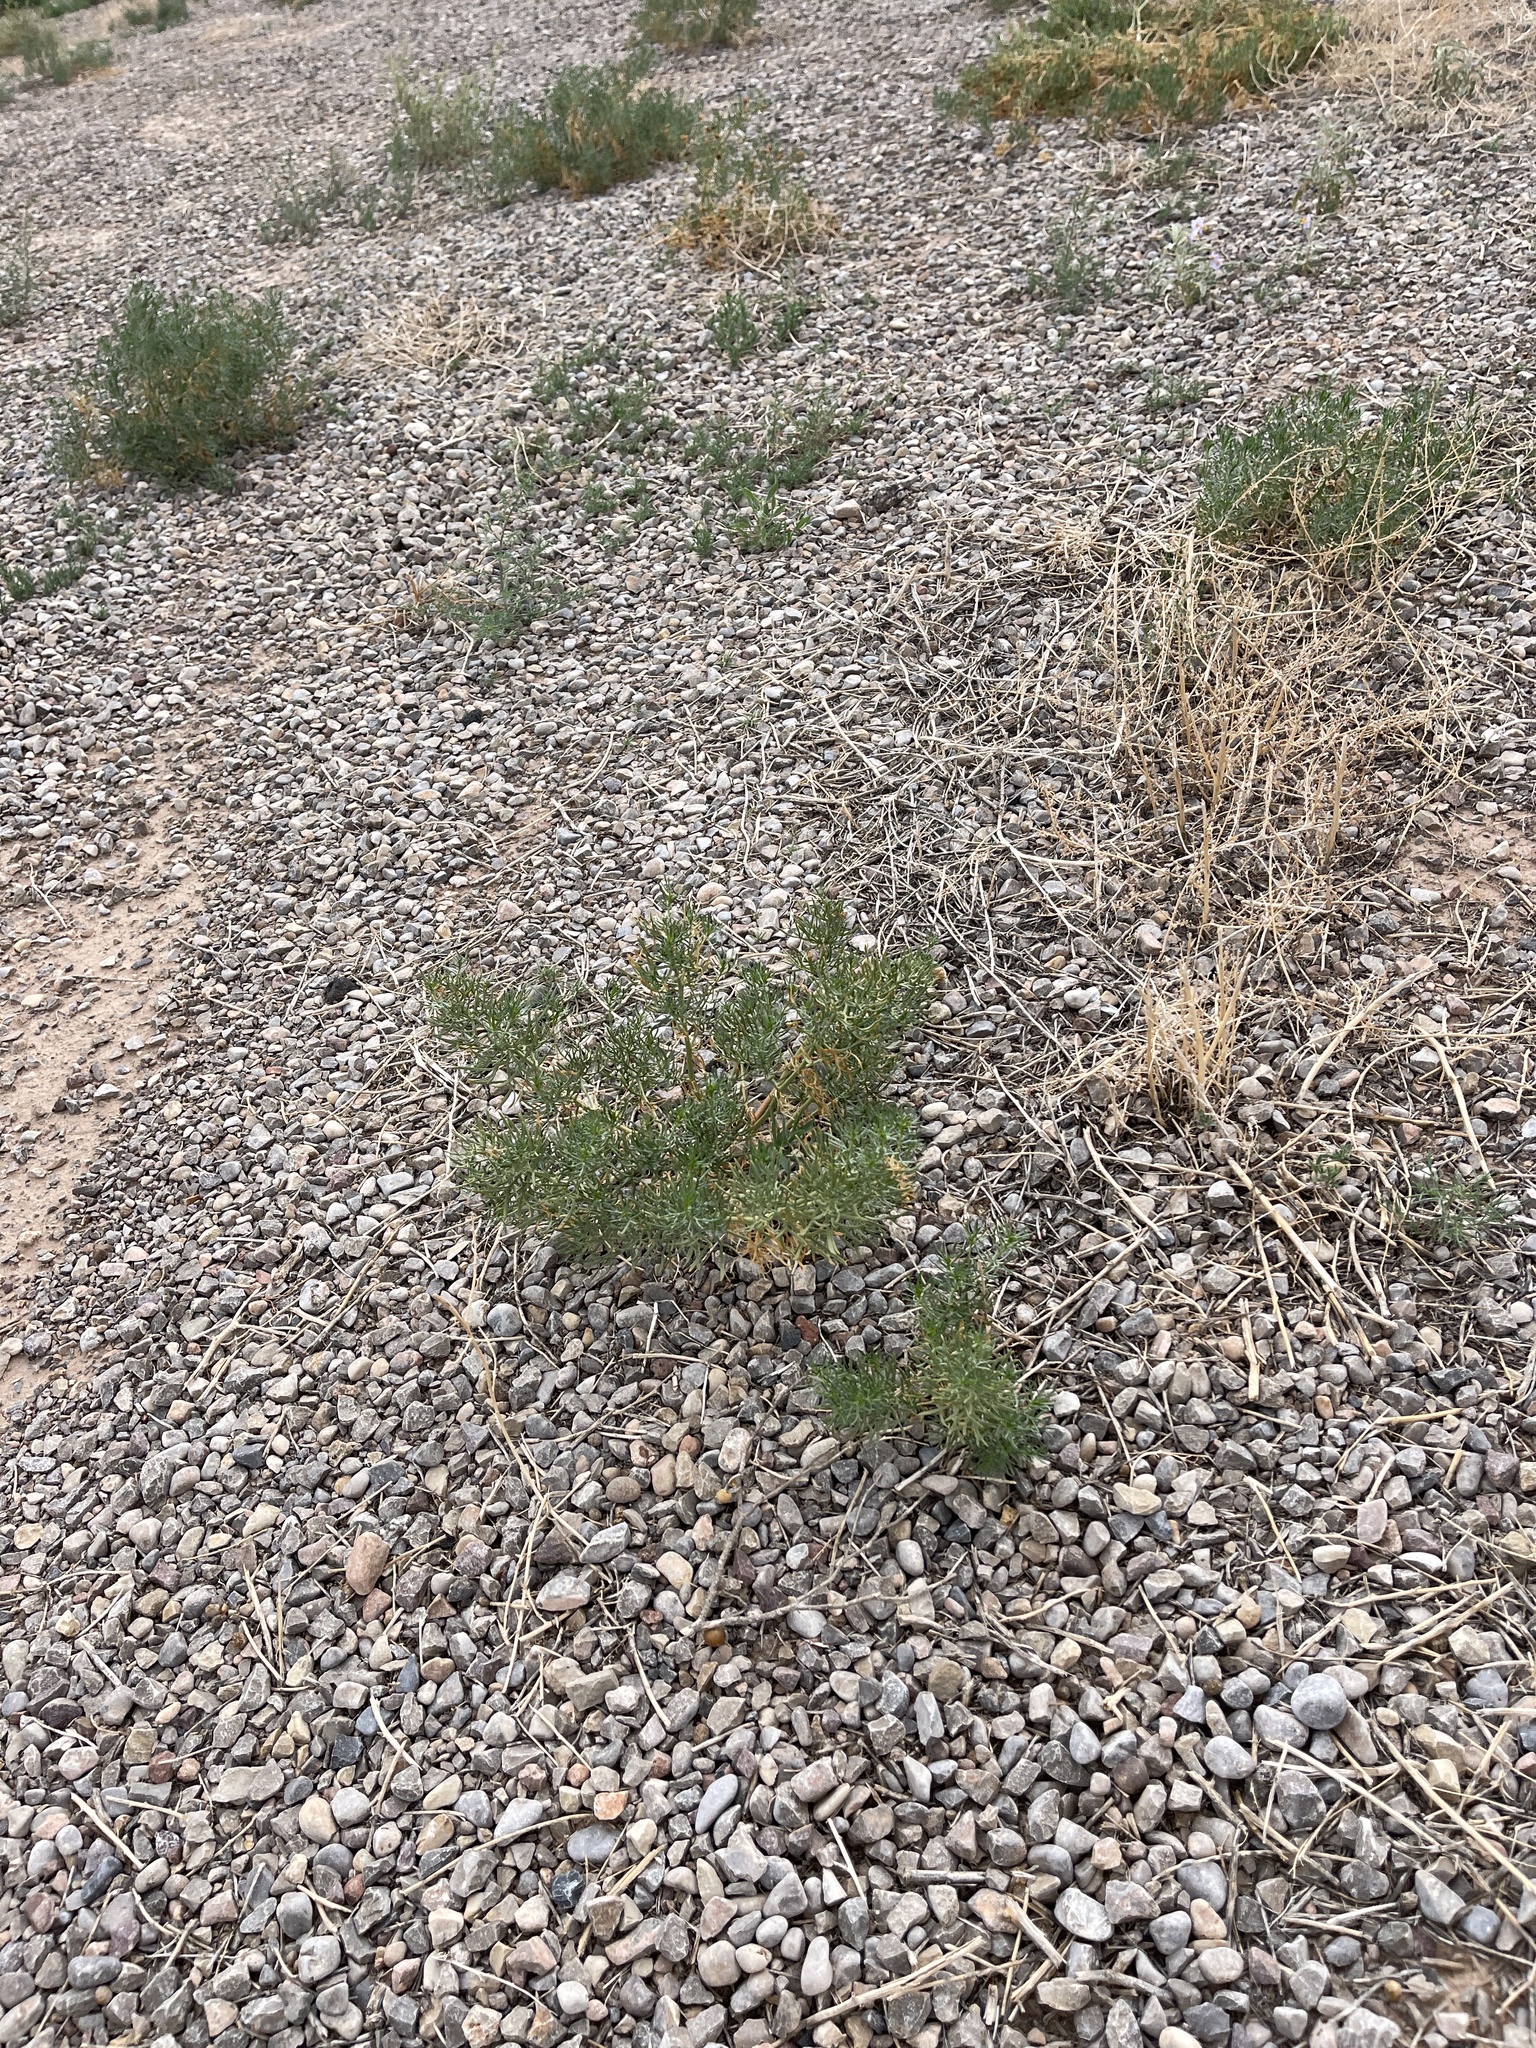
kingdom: Plantae
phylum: Tracheophyta
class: Magnoliopsida
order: Sapindales
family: Tetradiclidaceae
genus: Peganum
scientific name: Peganum harmala
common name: Harmal peganum
